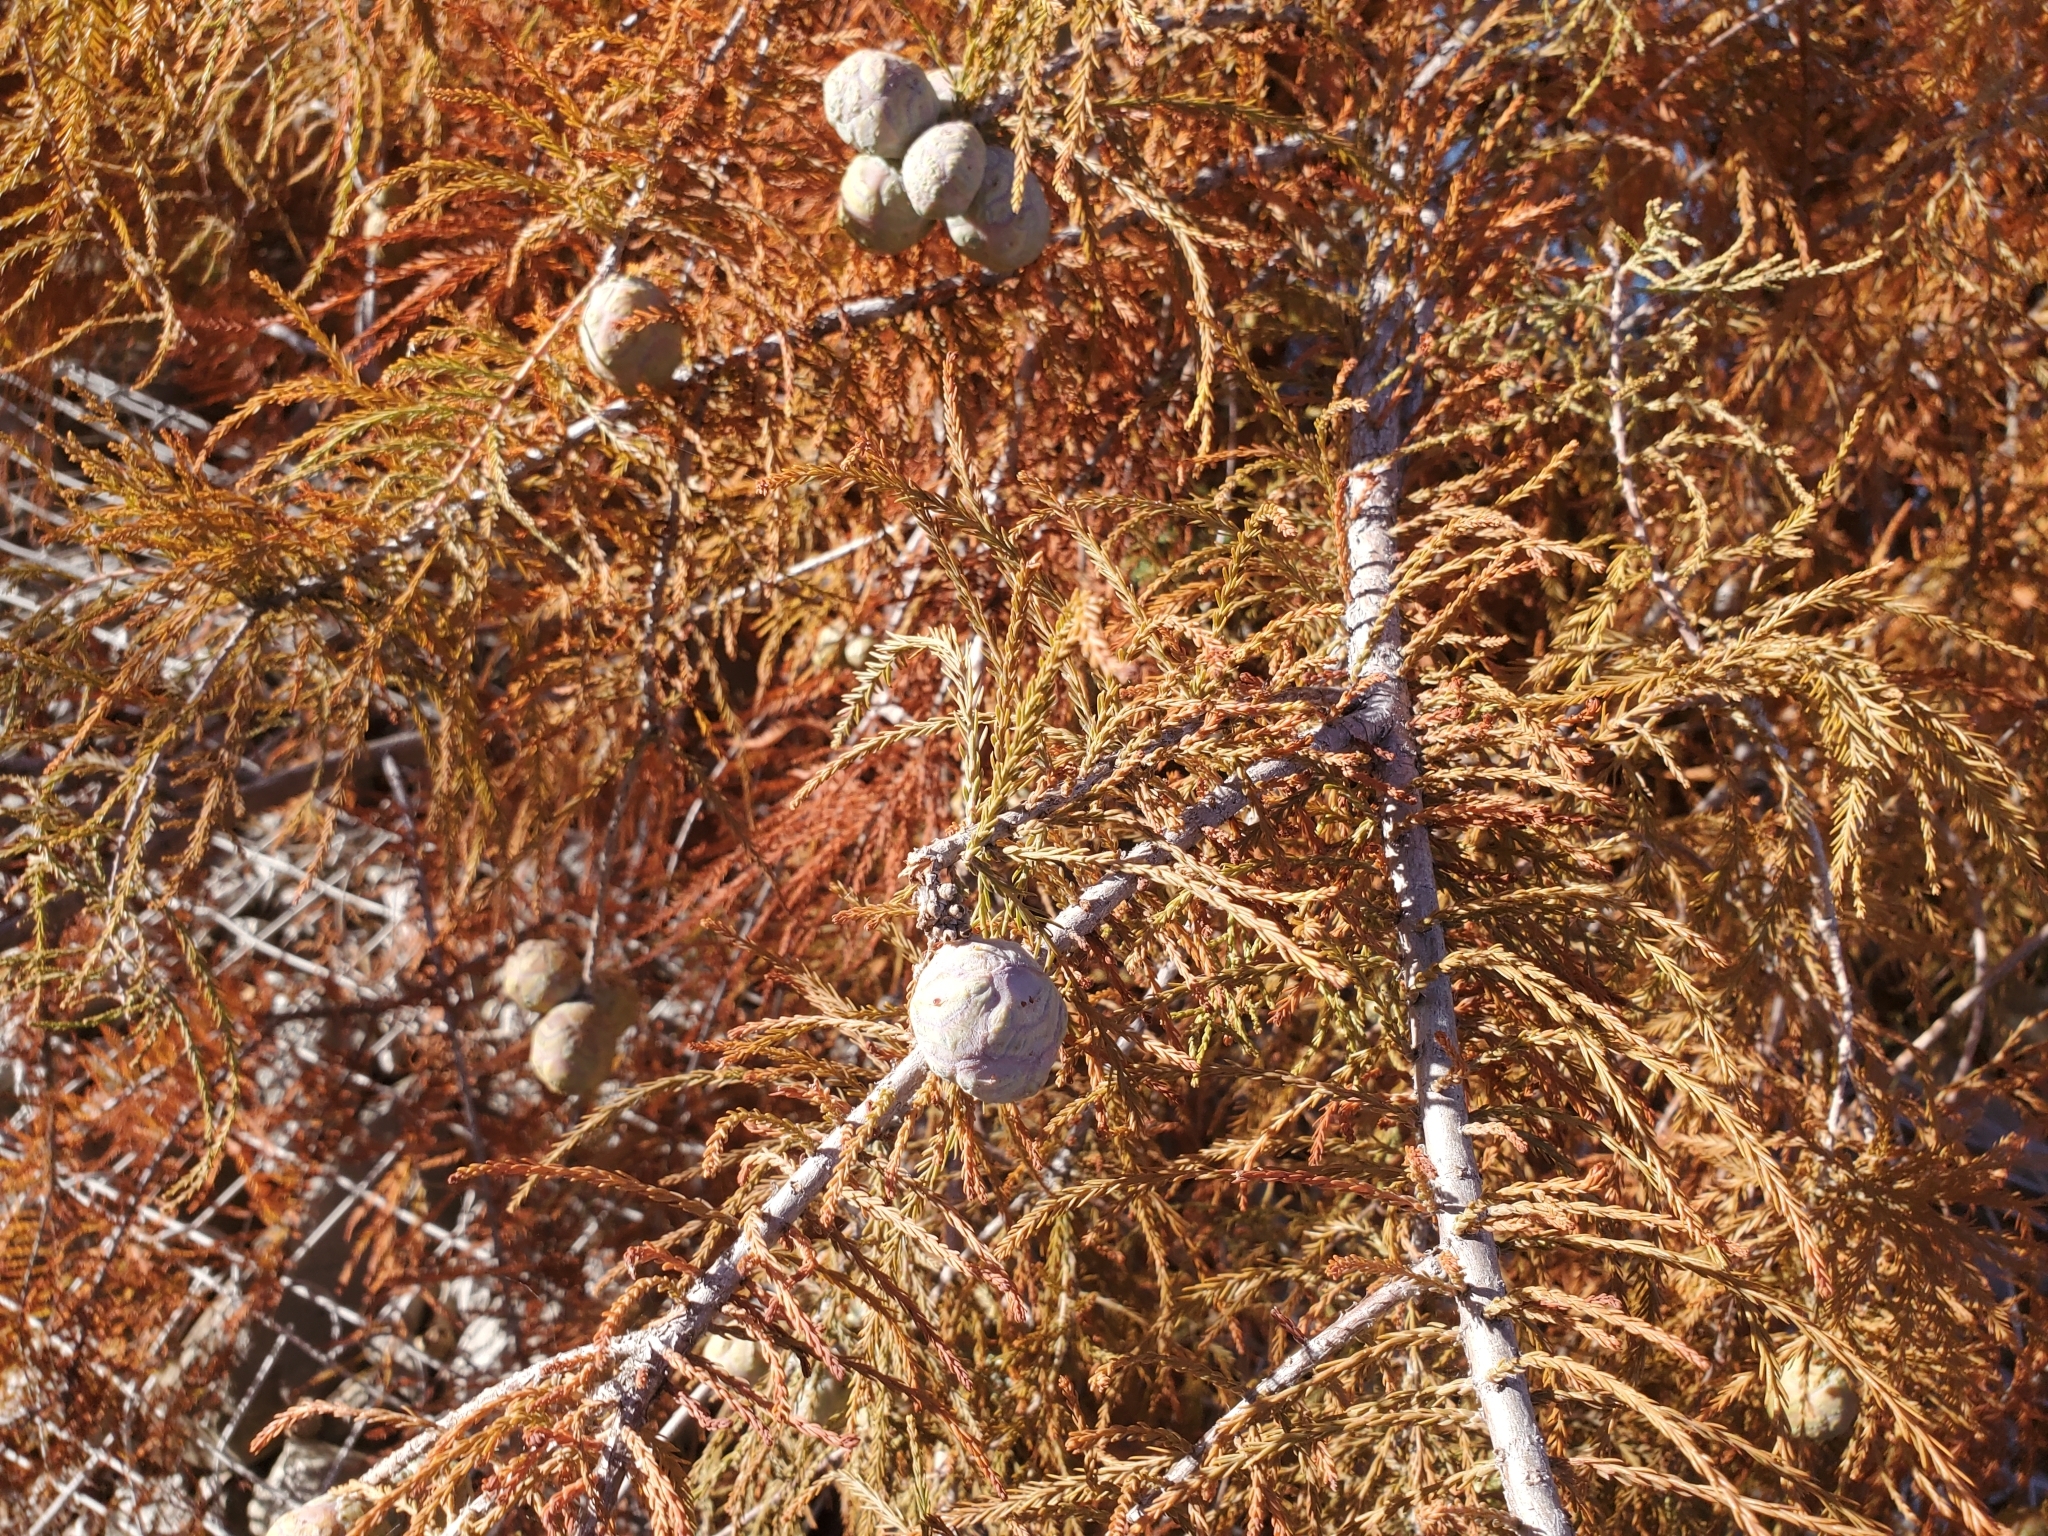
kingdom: Plantae
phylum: Tracheophyta
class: Pinopsida
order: Pinales
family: Cupressaceae
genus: Taxodium
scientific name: Taxodium distichum
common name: Bald cypress
